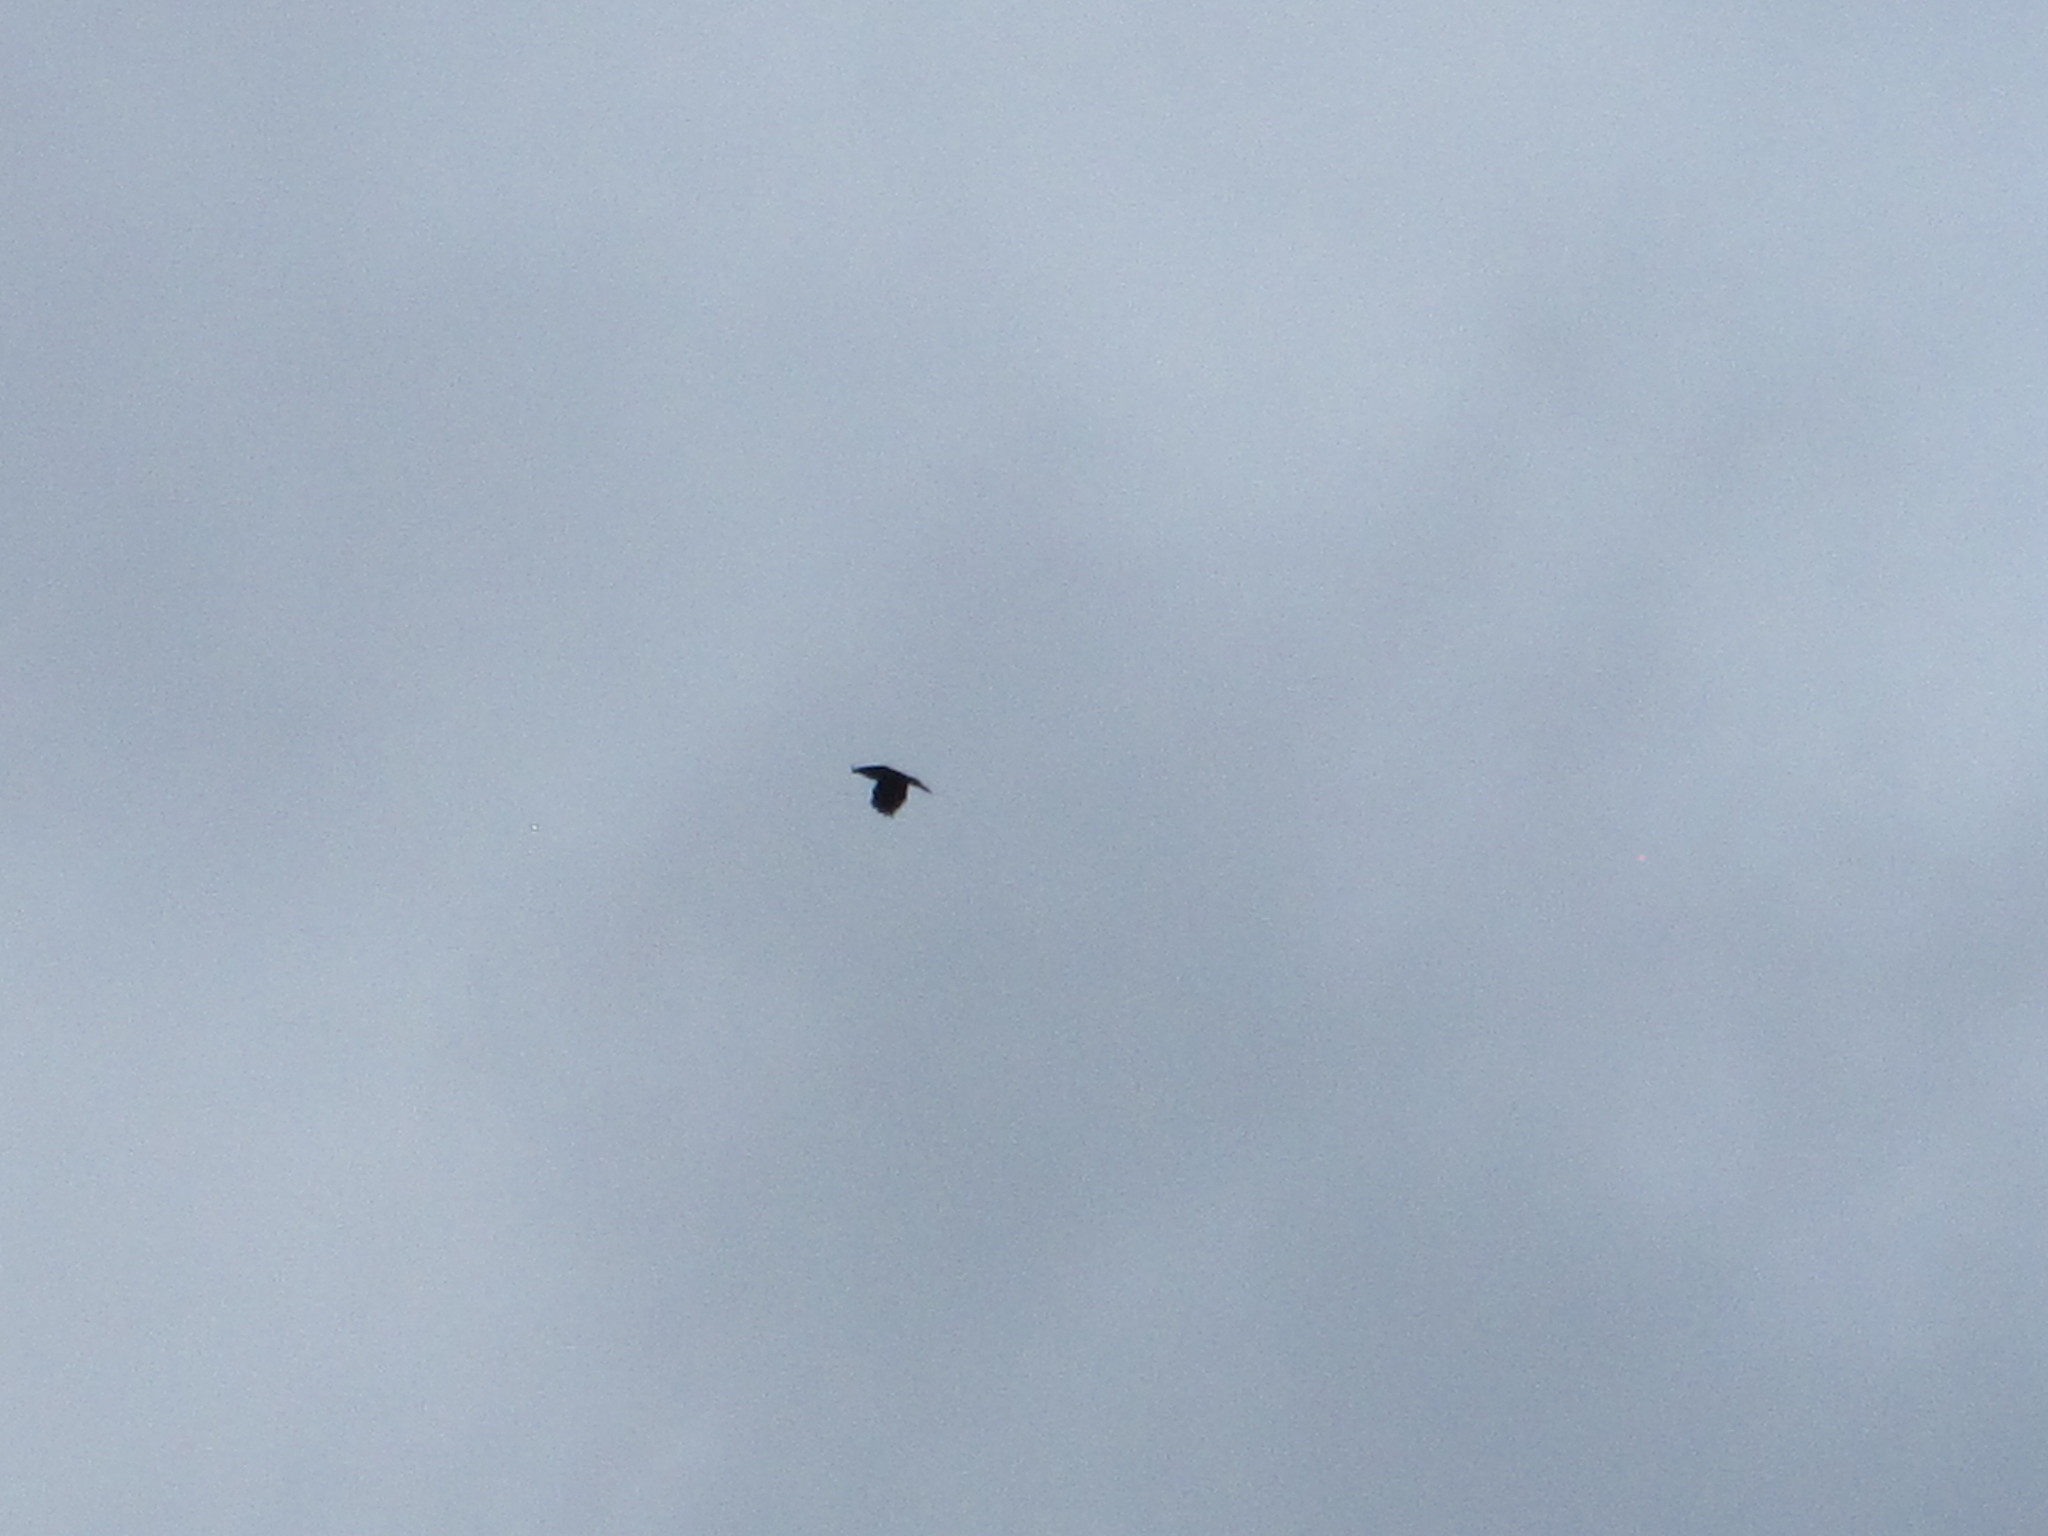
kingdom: Animalia
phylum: Chordata
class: Aves
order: Passeriformes
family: Corvidae
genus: Corvus
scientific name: Corvus corax
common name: Common raven
